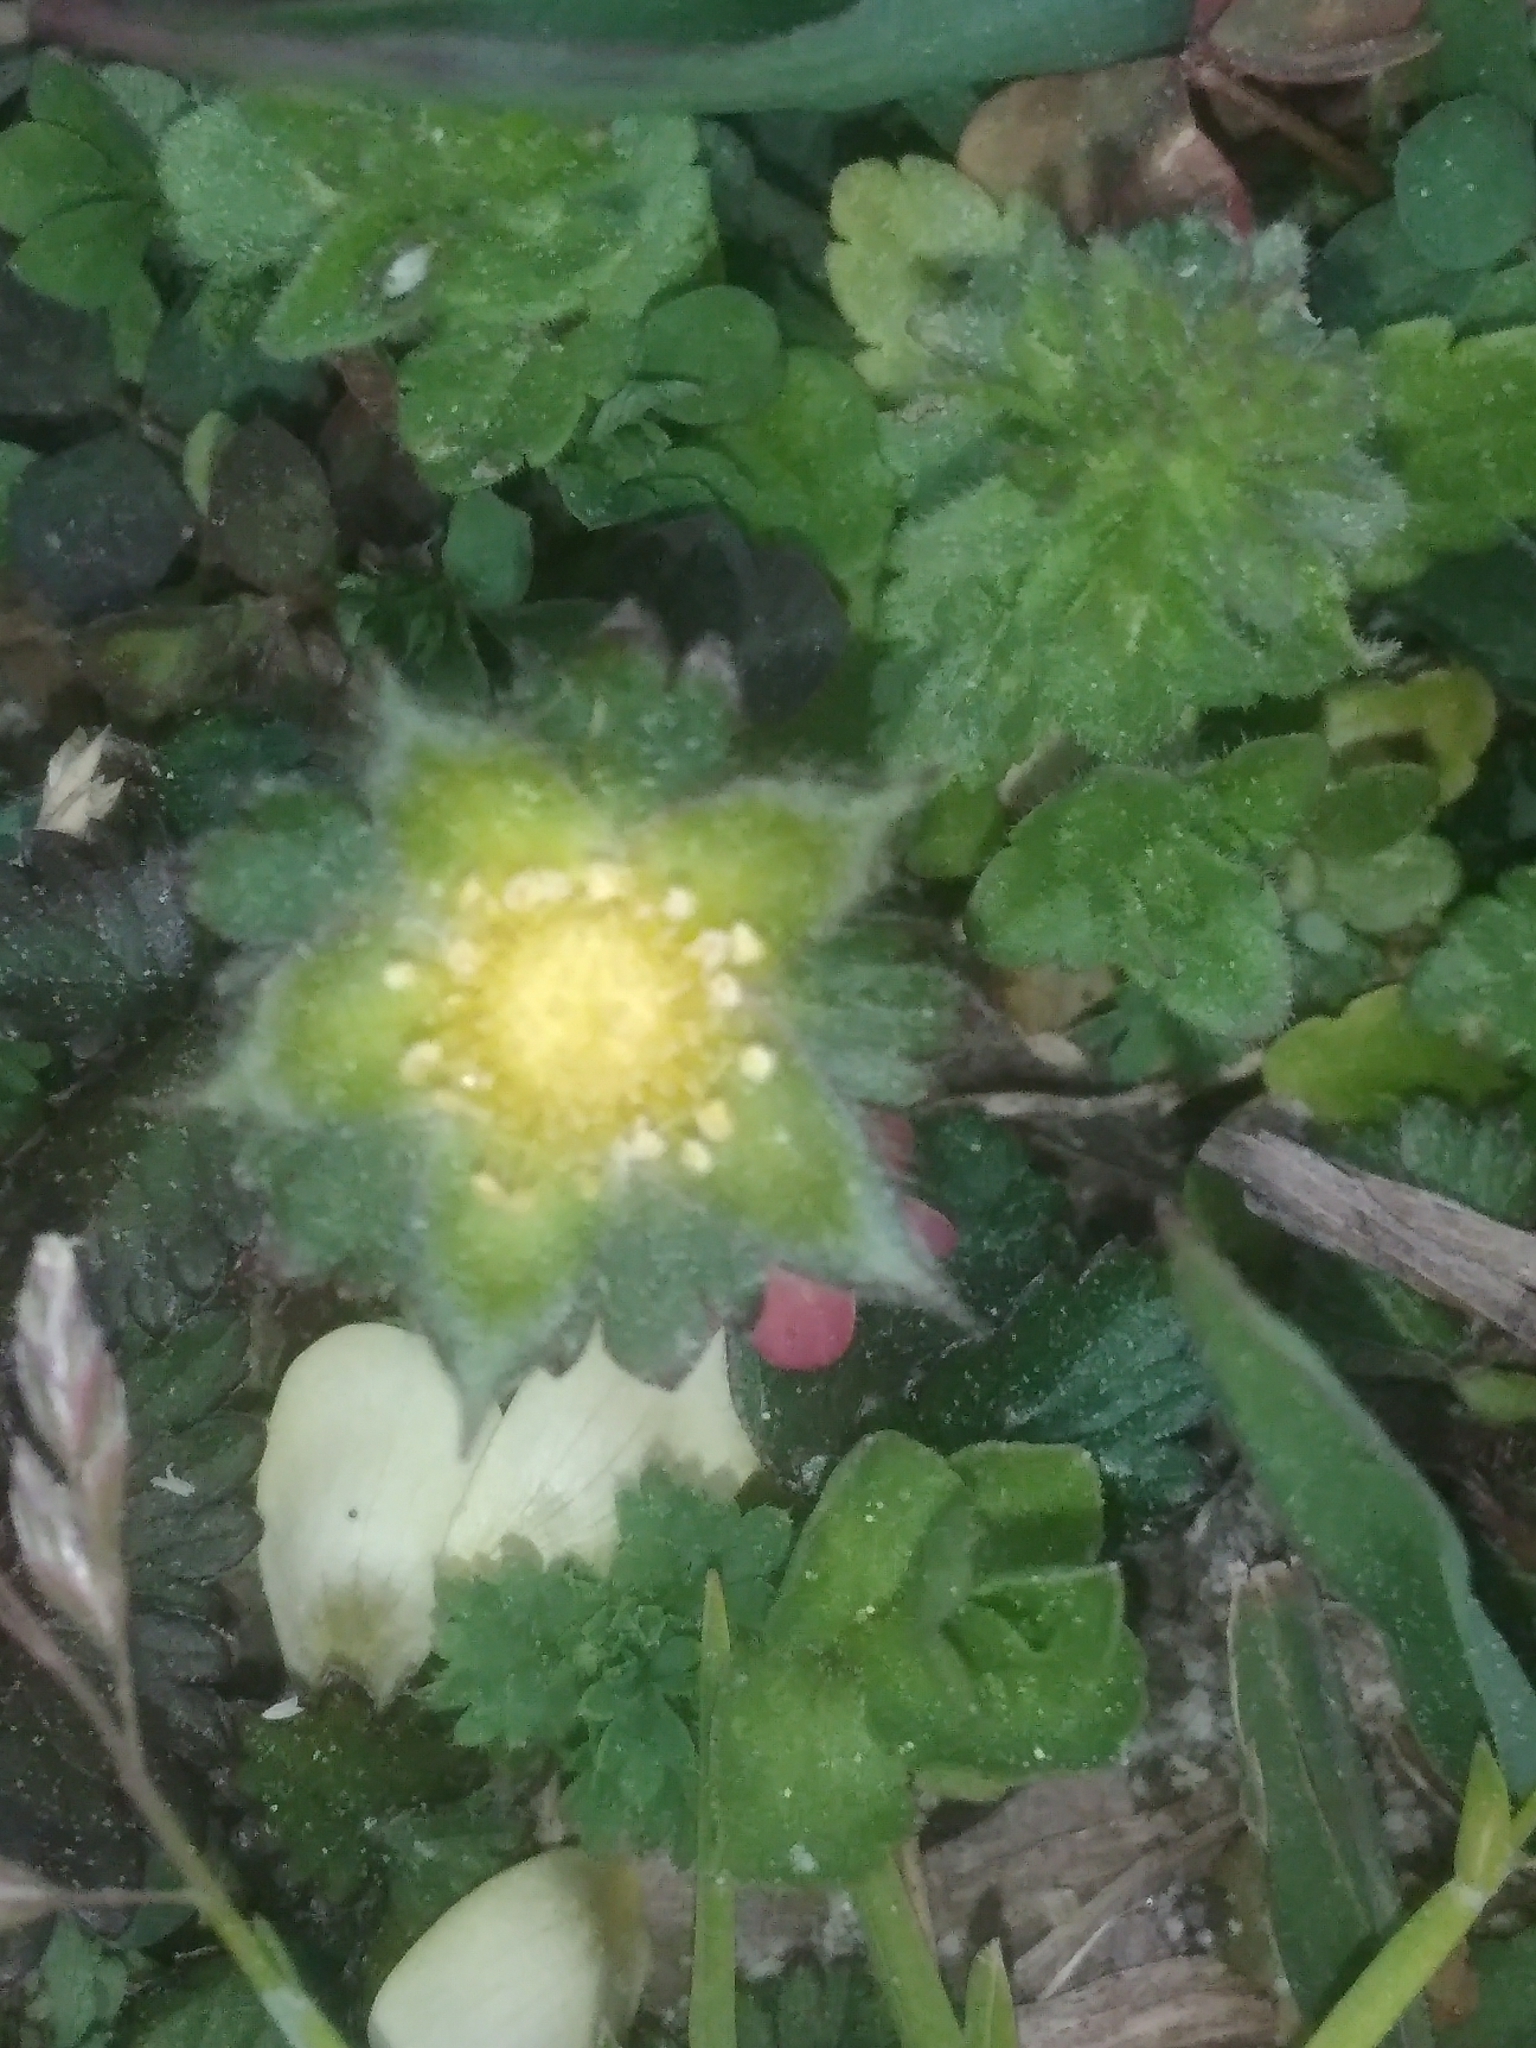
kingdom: Plantae
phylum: Tracheophyta
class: Magnoliopsida
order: Rosales
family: Rosaceae
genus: Potentilla
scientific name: Potentilla indica
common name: Yellow-flowered strawberry
